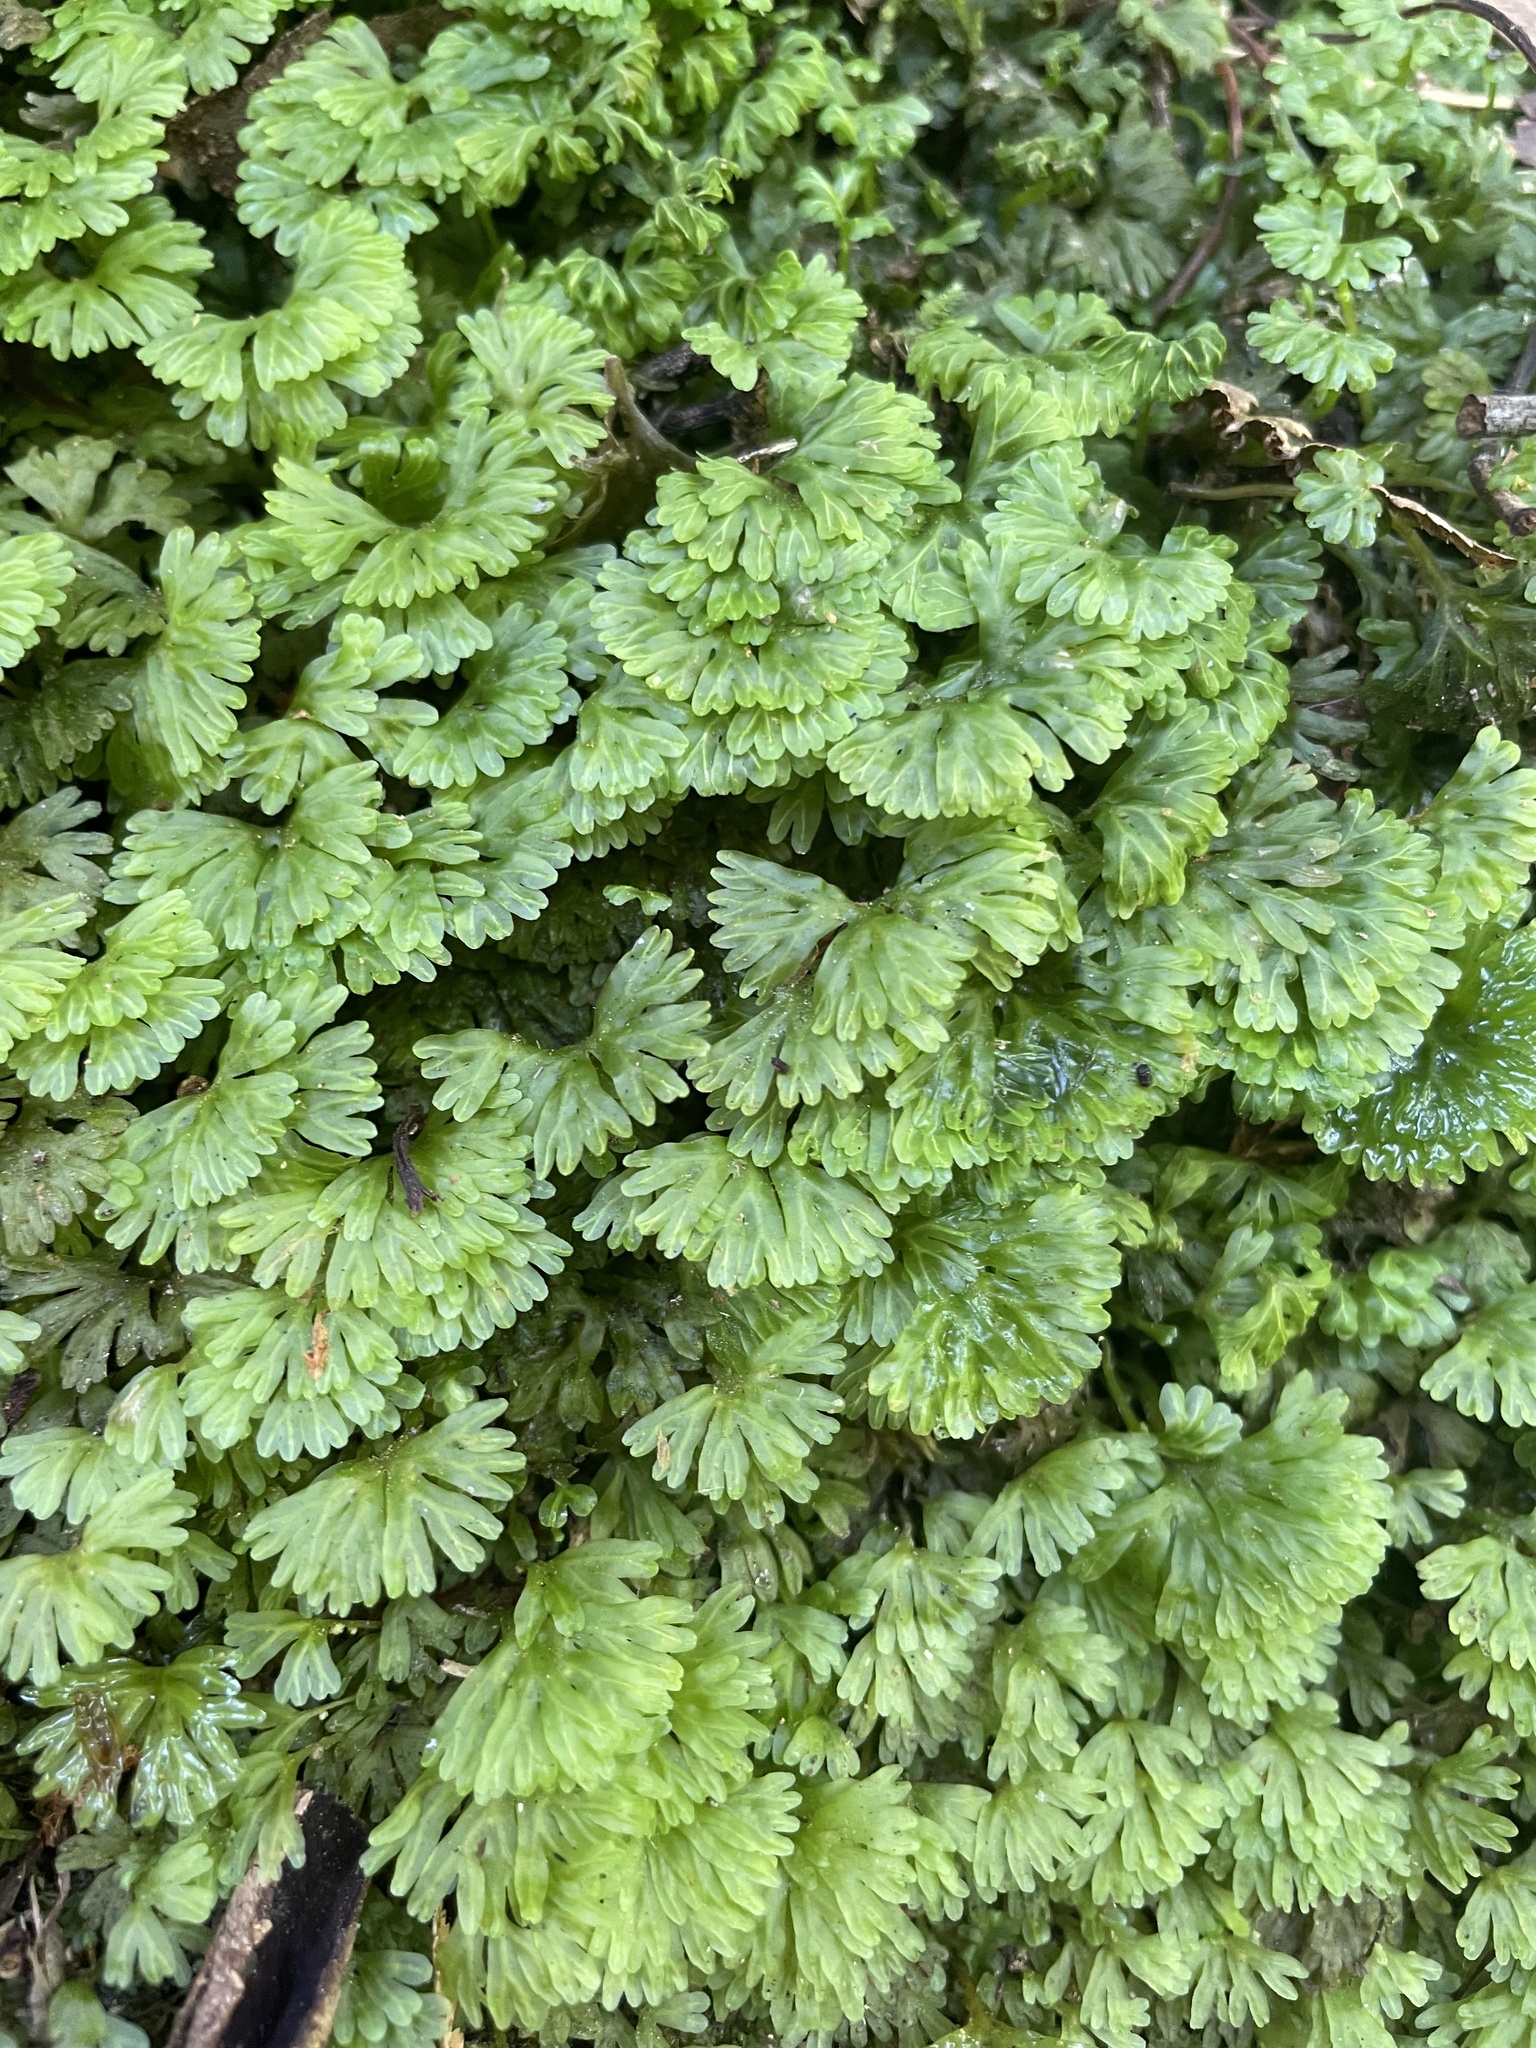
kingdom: Plantae
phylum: Marchantiophyta
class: Jungermanniopsida
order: Pallaviciniales
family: Hymenophytaceae
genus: Hymenophyton
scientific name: Hymenophyton flabellatum
